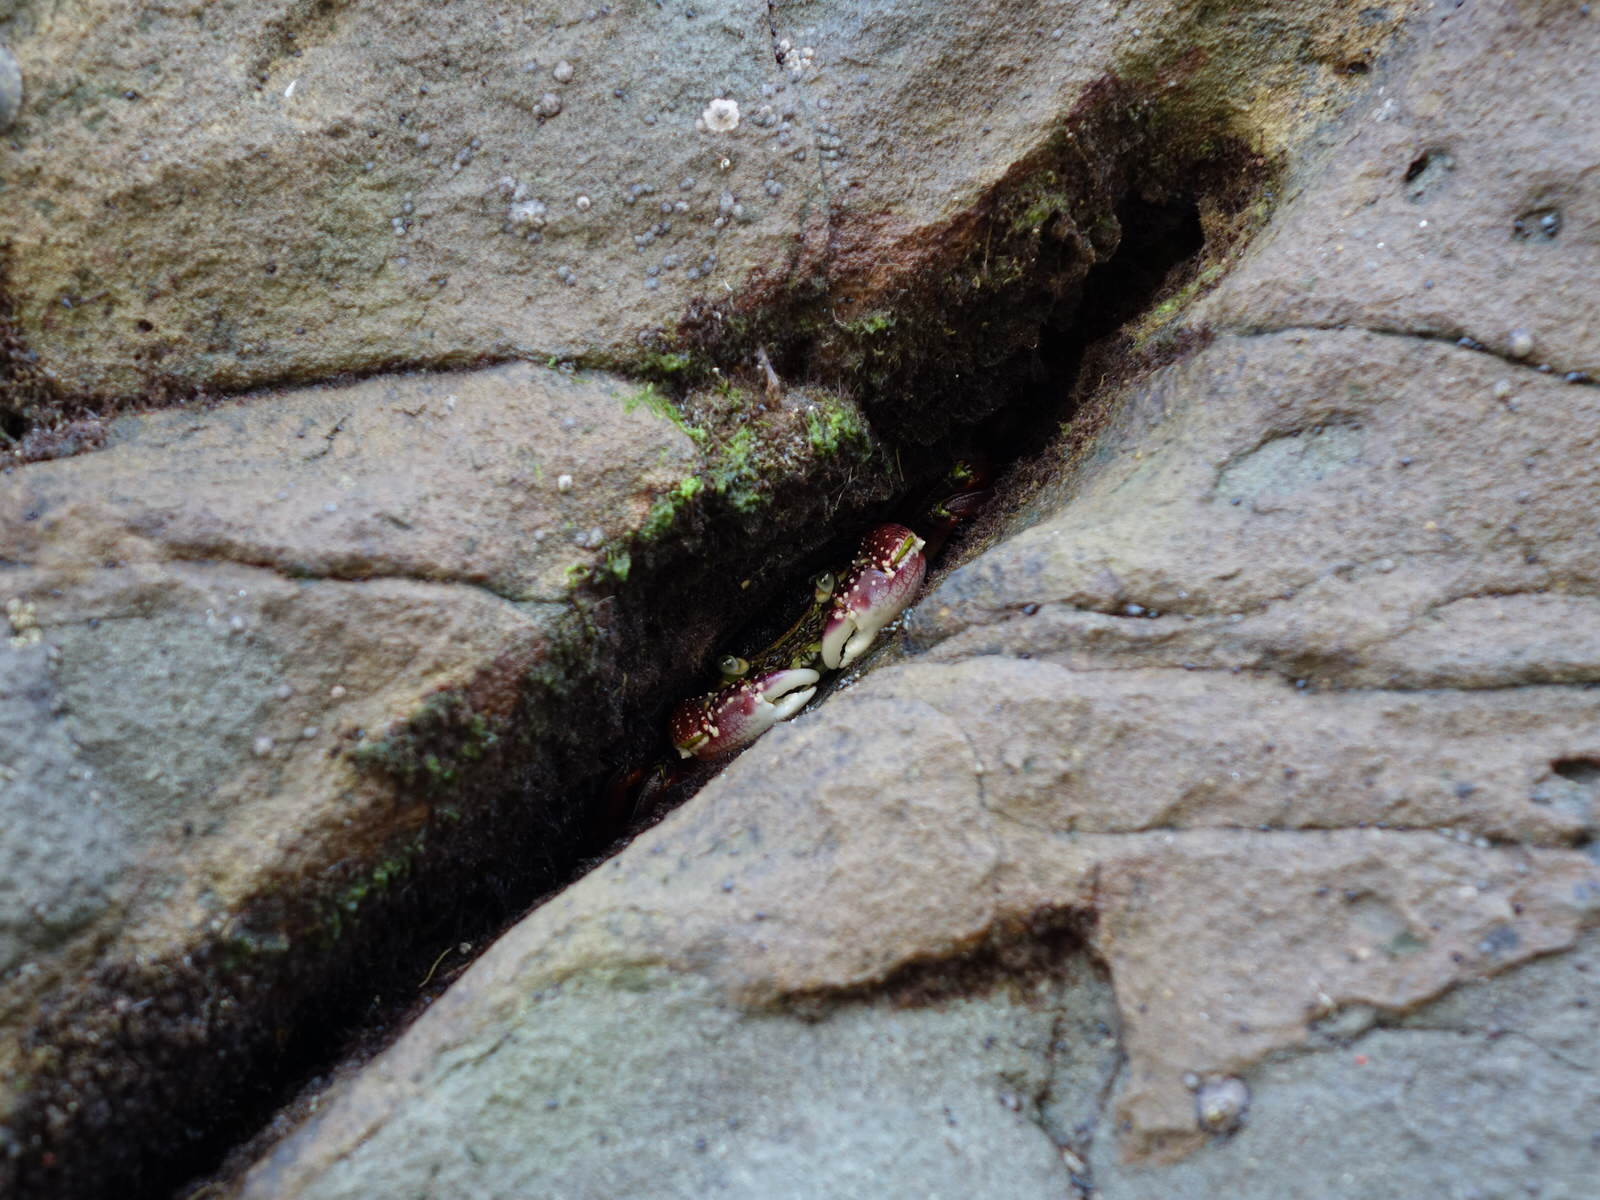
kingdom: Animalia
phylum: Arthropoda
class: Malacostraca
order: Decapoda
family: Grapsidae
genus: Leptograpsus
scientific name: Leptograpsus variegatus
